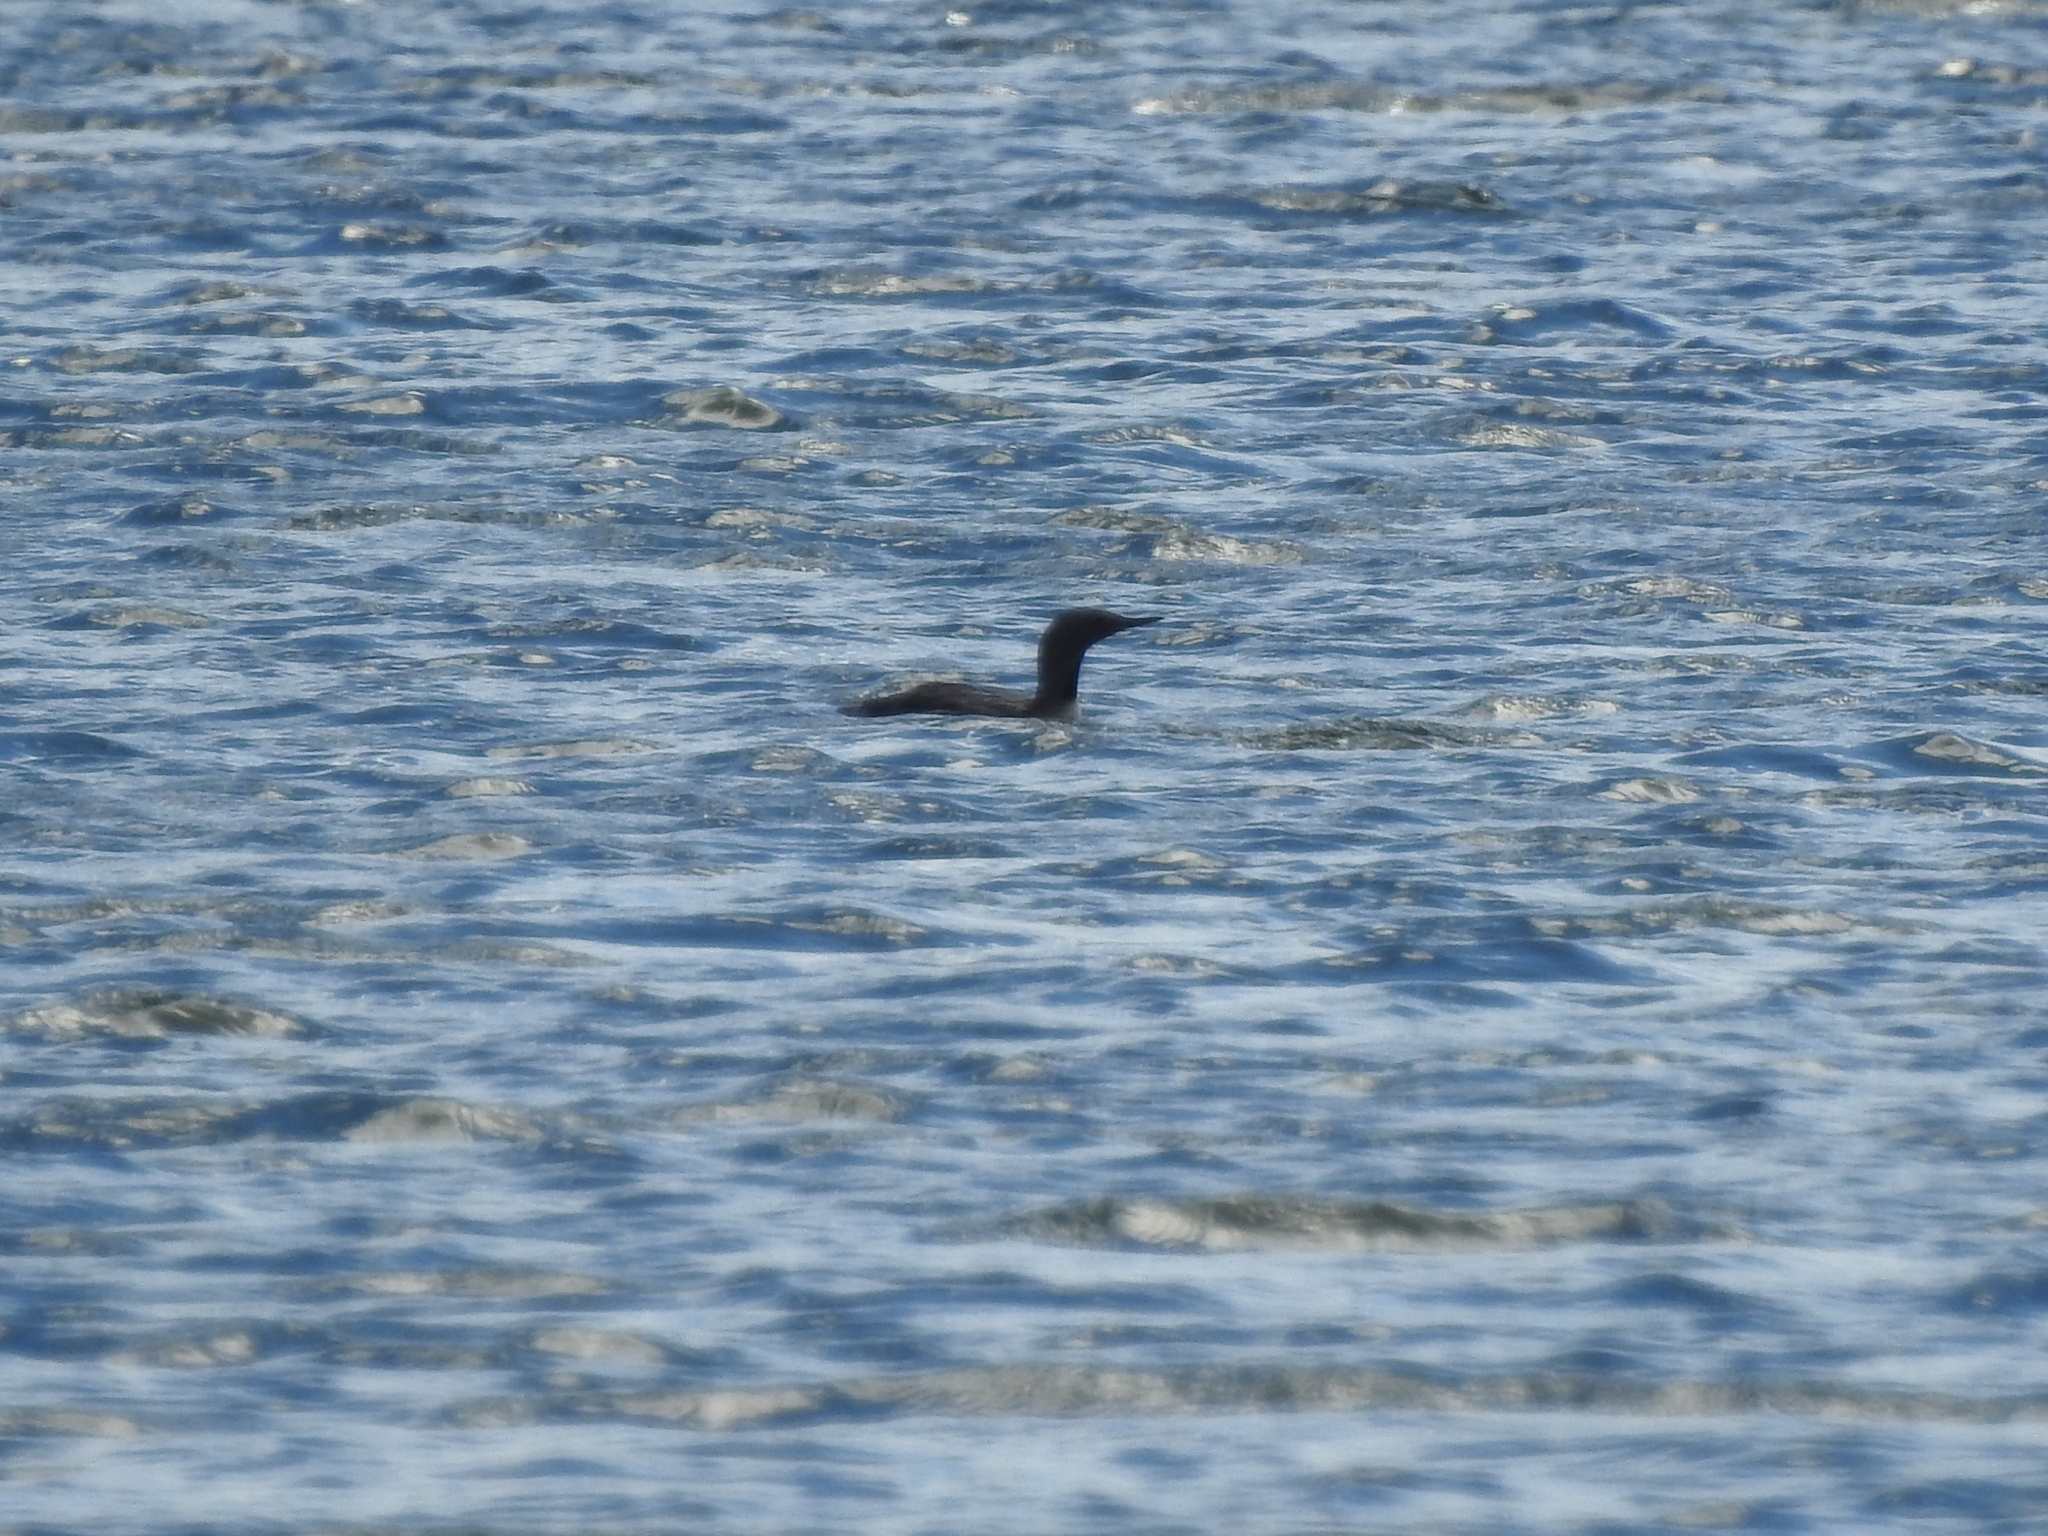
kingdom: Animalia
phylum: Chordata
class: Aves
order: Gaviiformes
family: Gaviidae
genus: Gavia
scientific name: Gavia arctica
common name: Black-throated loon
